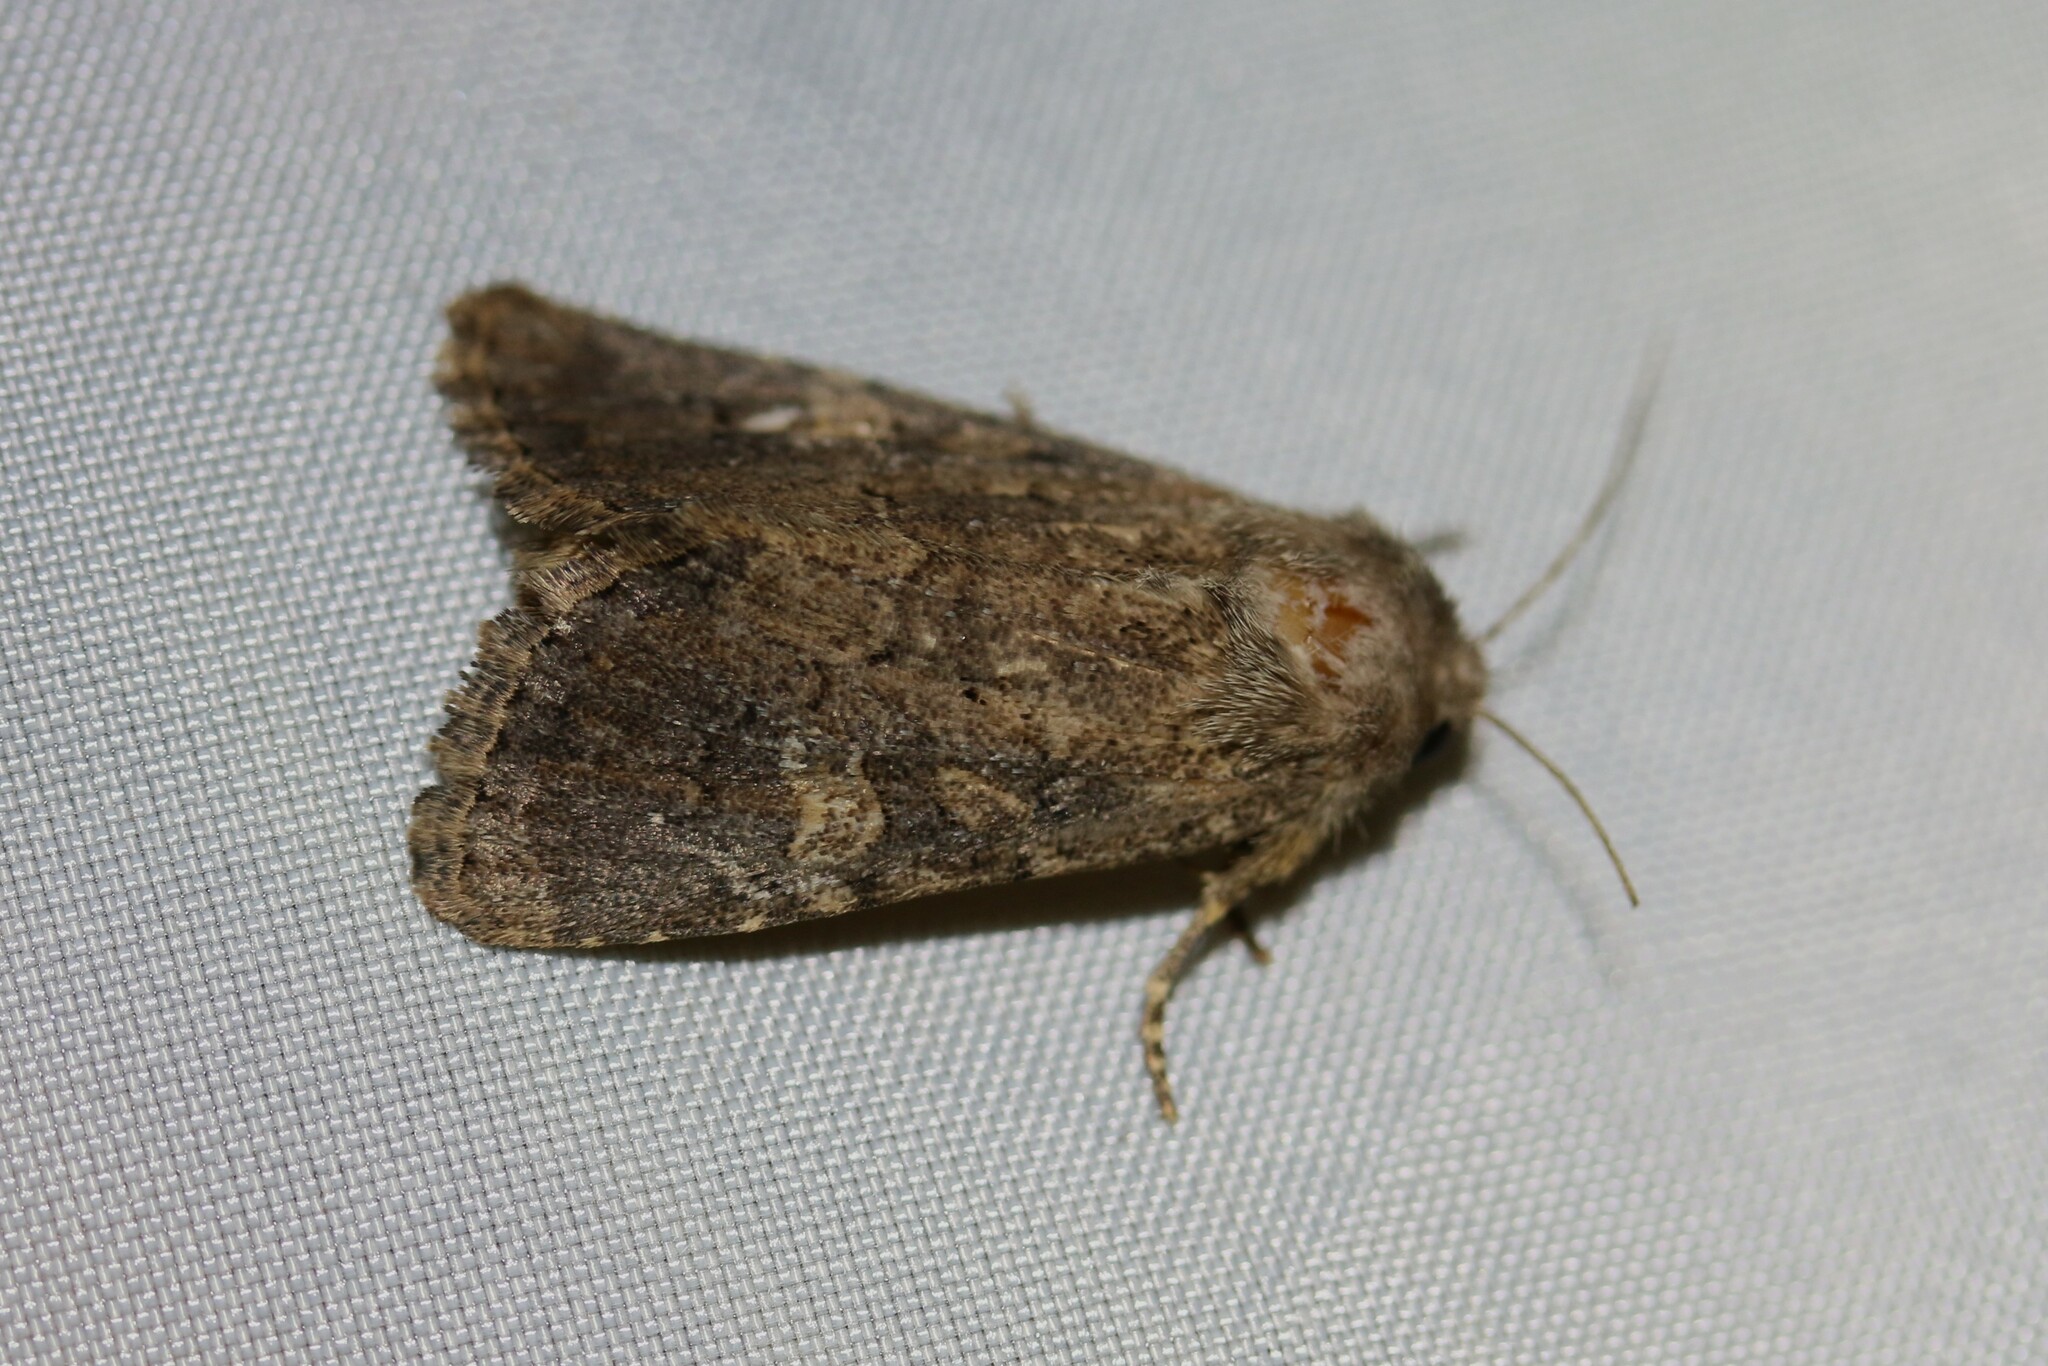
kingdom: Animalia
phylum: Arthropoda
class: Insecta
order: Lepidoptera
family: Noctuidae
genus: Luperina
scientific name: Luperina testacea
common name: Flounced rustic
